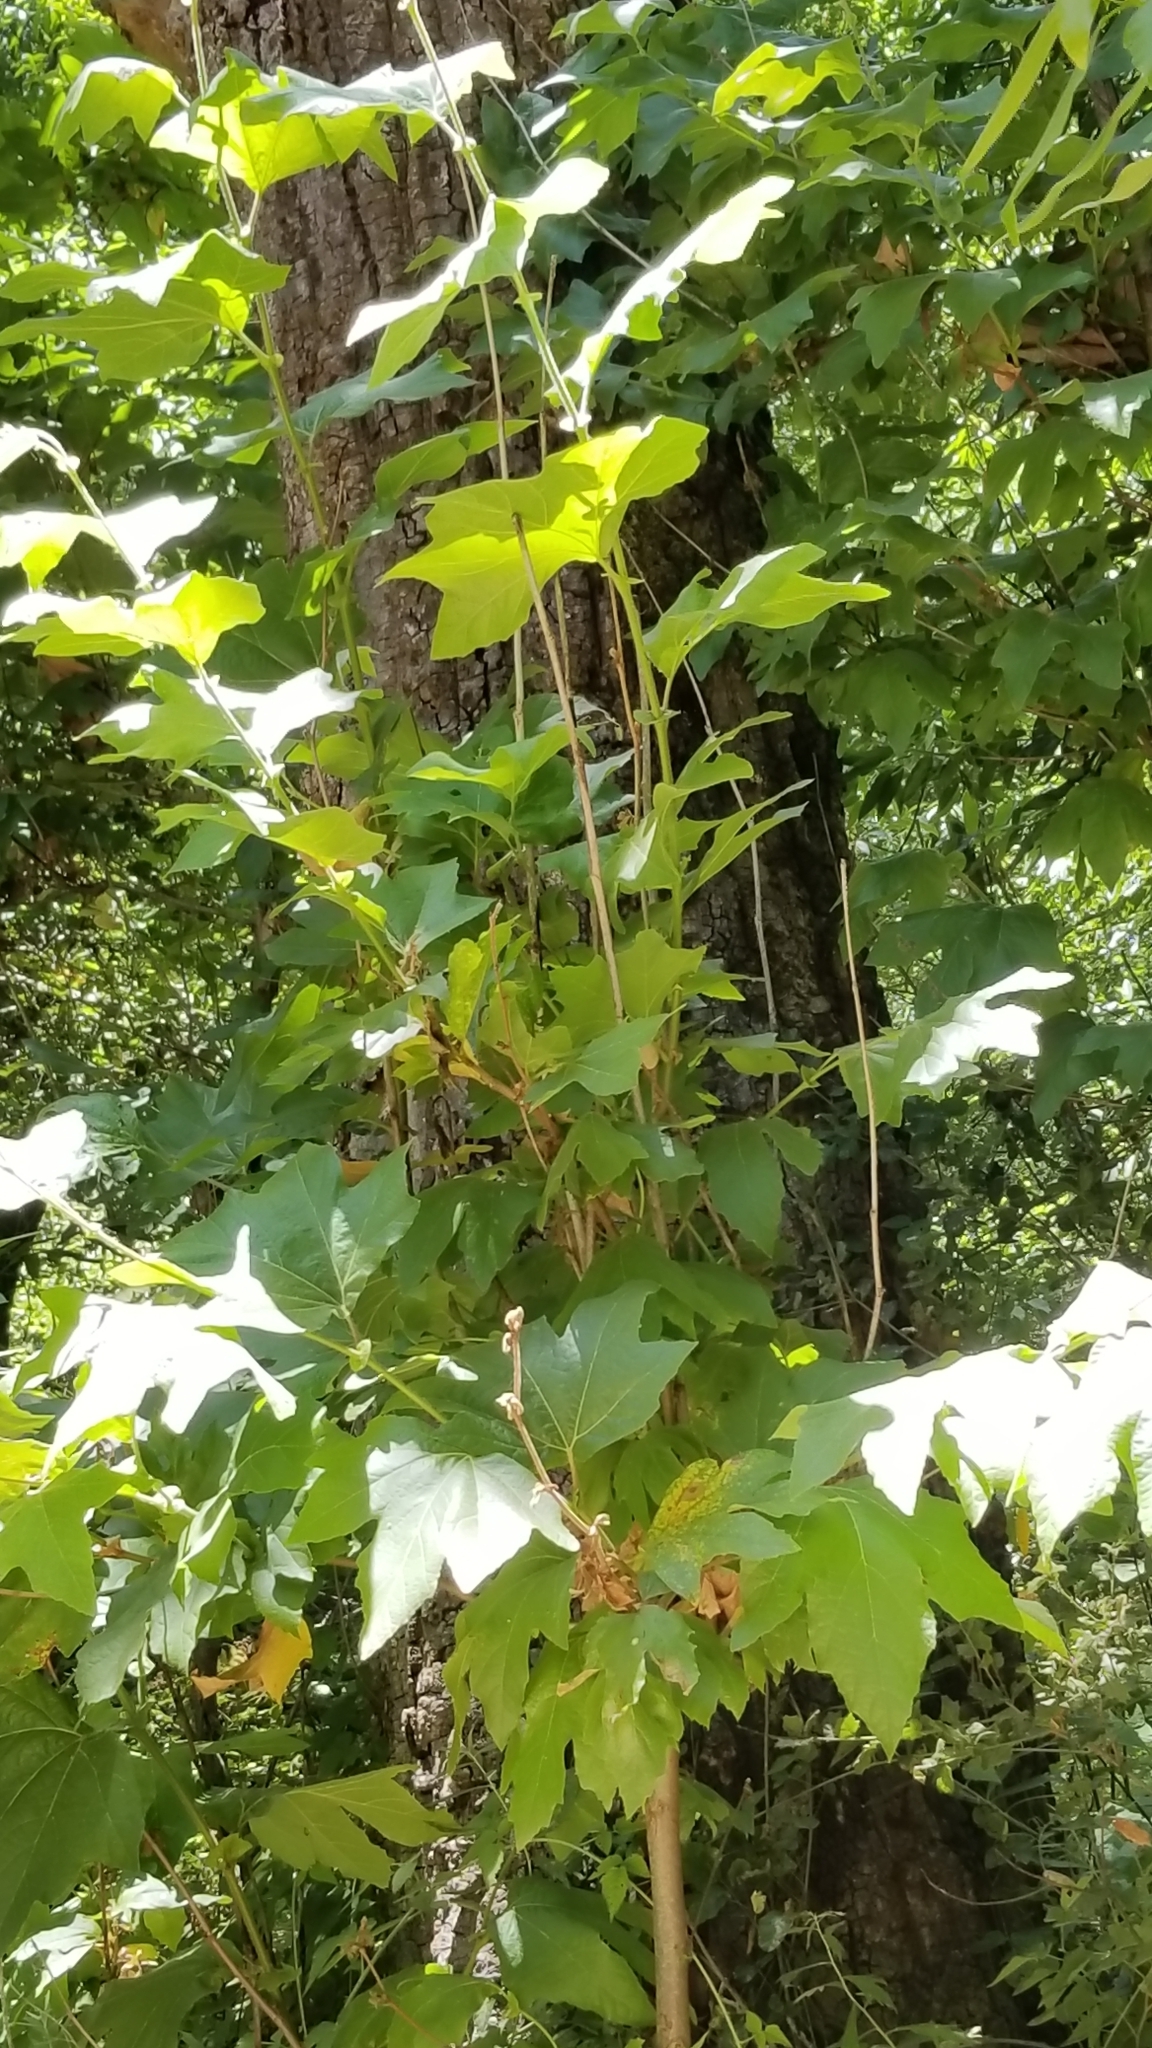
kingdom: Plantae
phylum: Tracheophyta
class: Magnoliopsida
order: Proteales
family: Platanaceae
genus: Platanus
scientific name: Platanus racemosa
